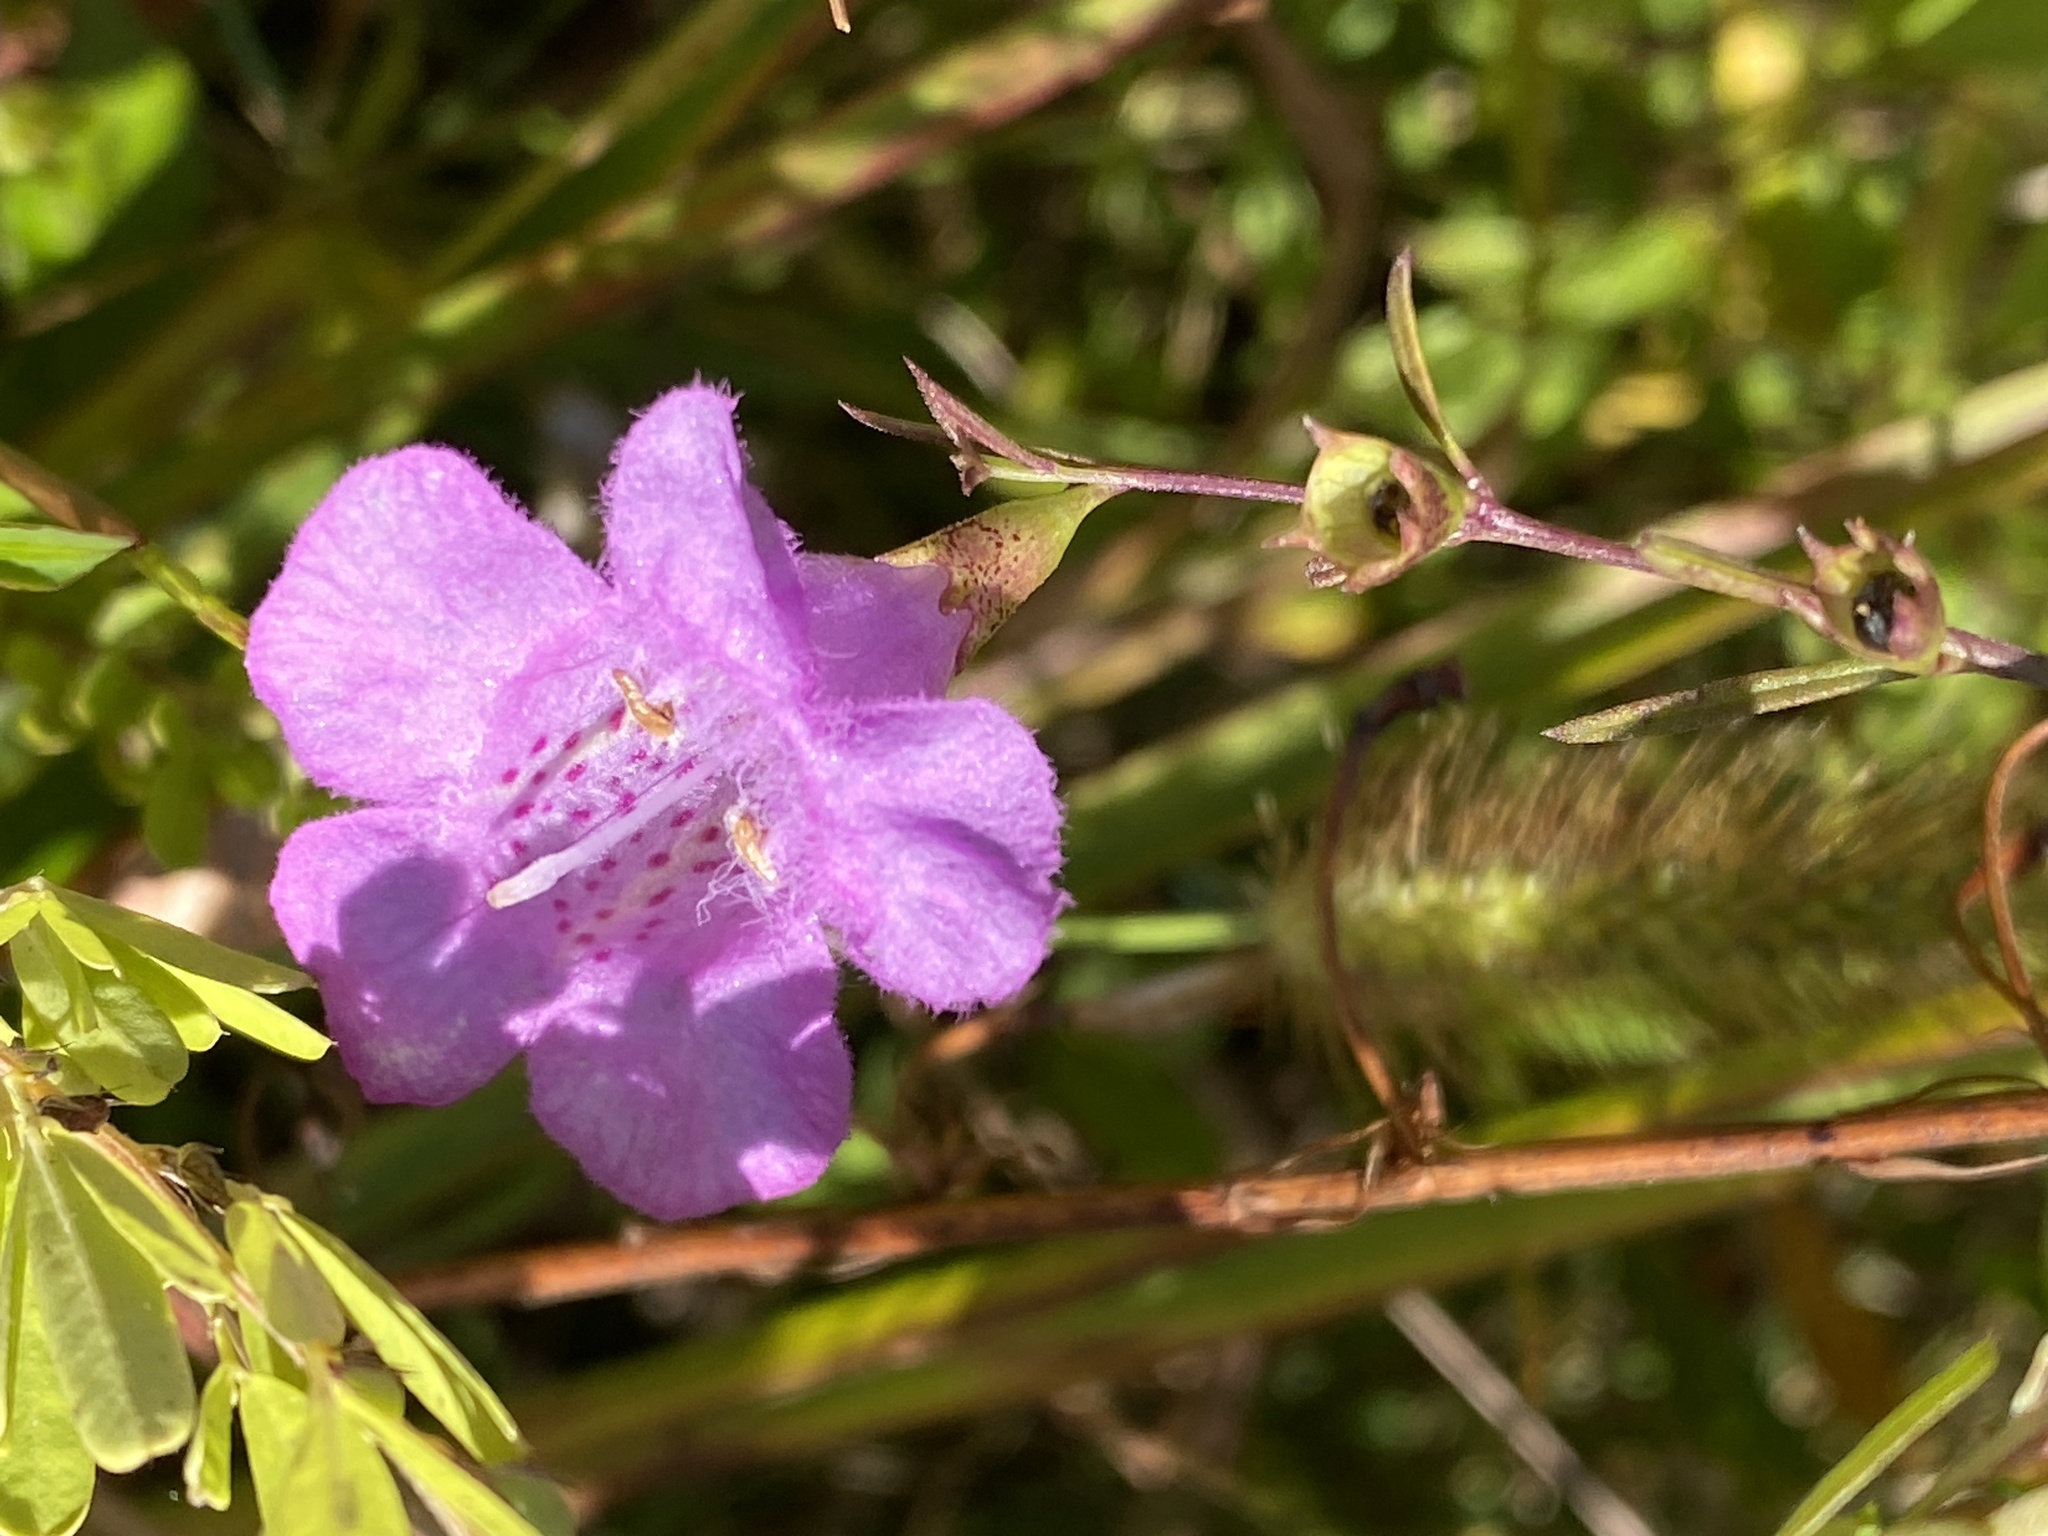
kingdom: Plantae
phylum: Tracheophyta
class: Magnoliopsida
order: Lamiales
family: Orobanchaceae
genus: Agalinis
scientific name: Agalinis purpurea
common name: Purple false foxglove
